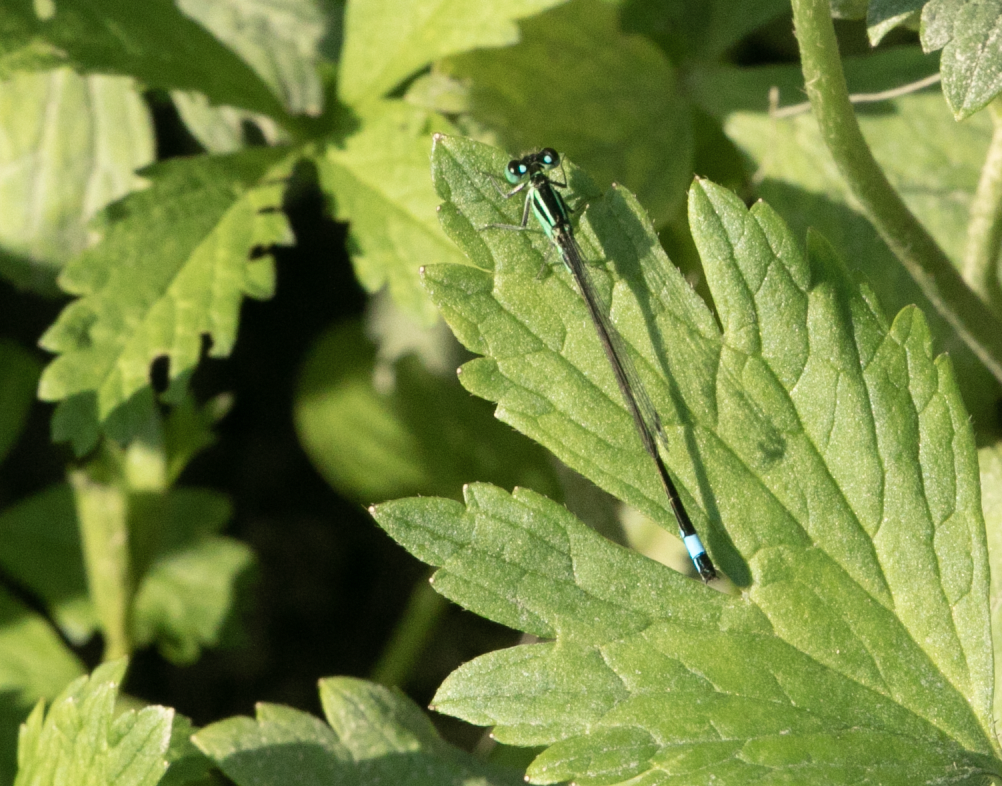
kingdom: Animalia
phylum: Arthropoda
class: Insecta
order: Odonata
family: Coenagrionidae
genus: Ischnura
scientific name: Ischnura elegans
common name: Blue-tailed damselfly
